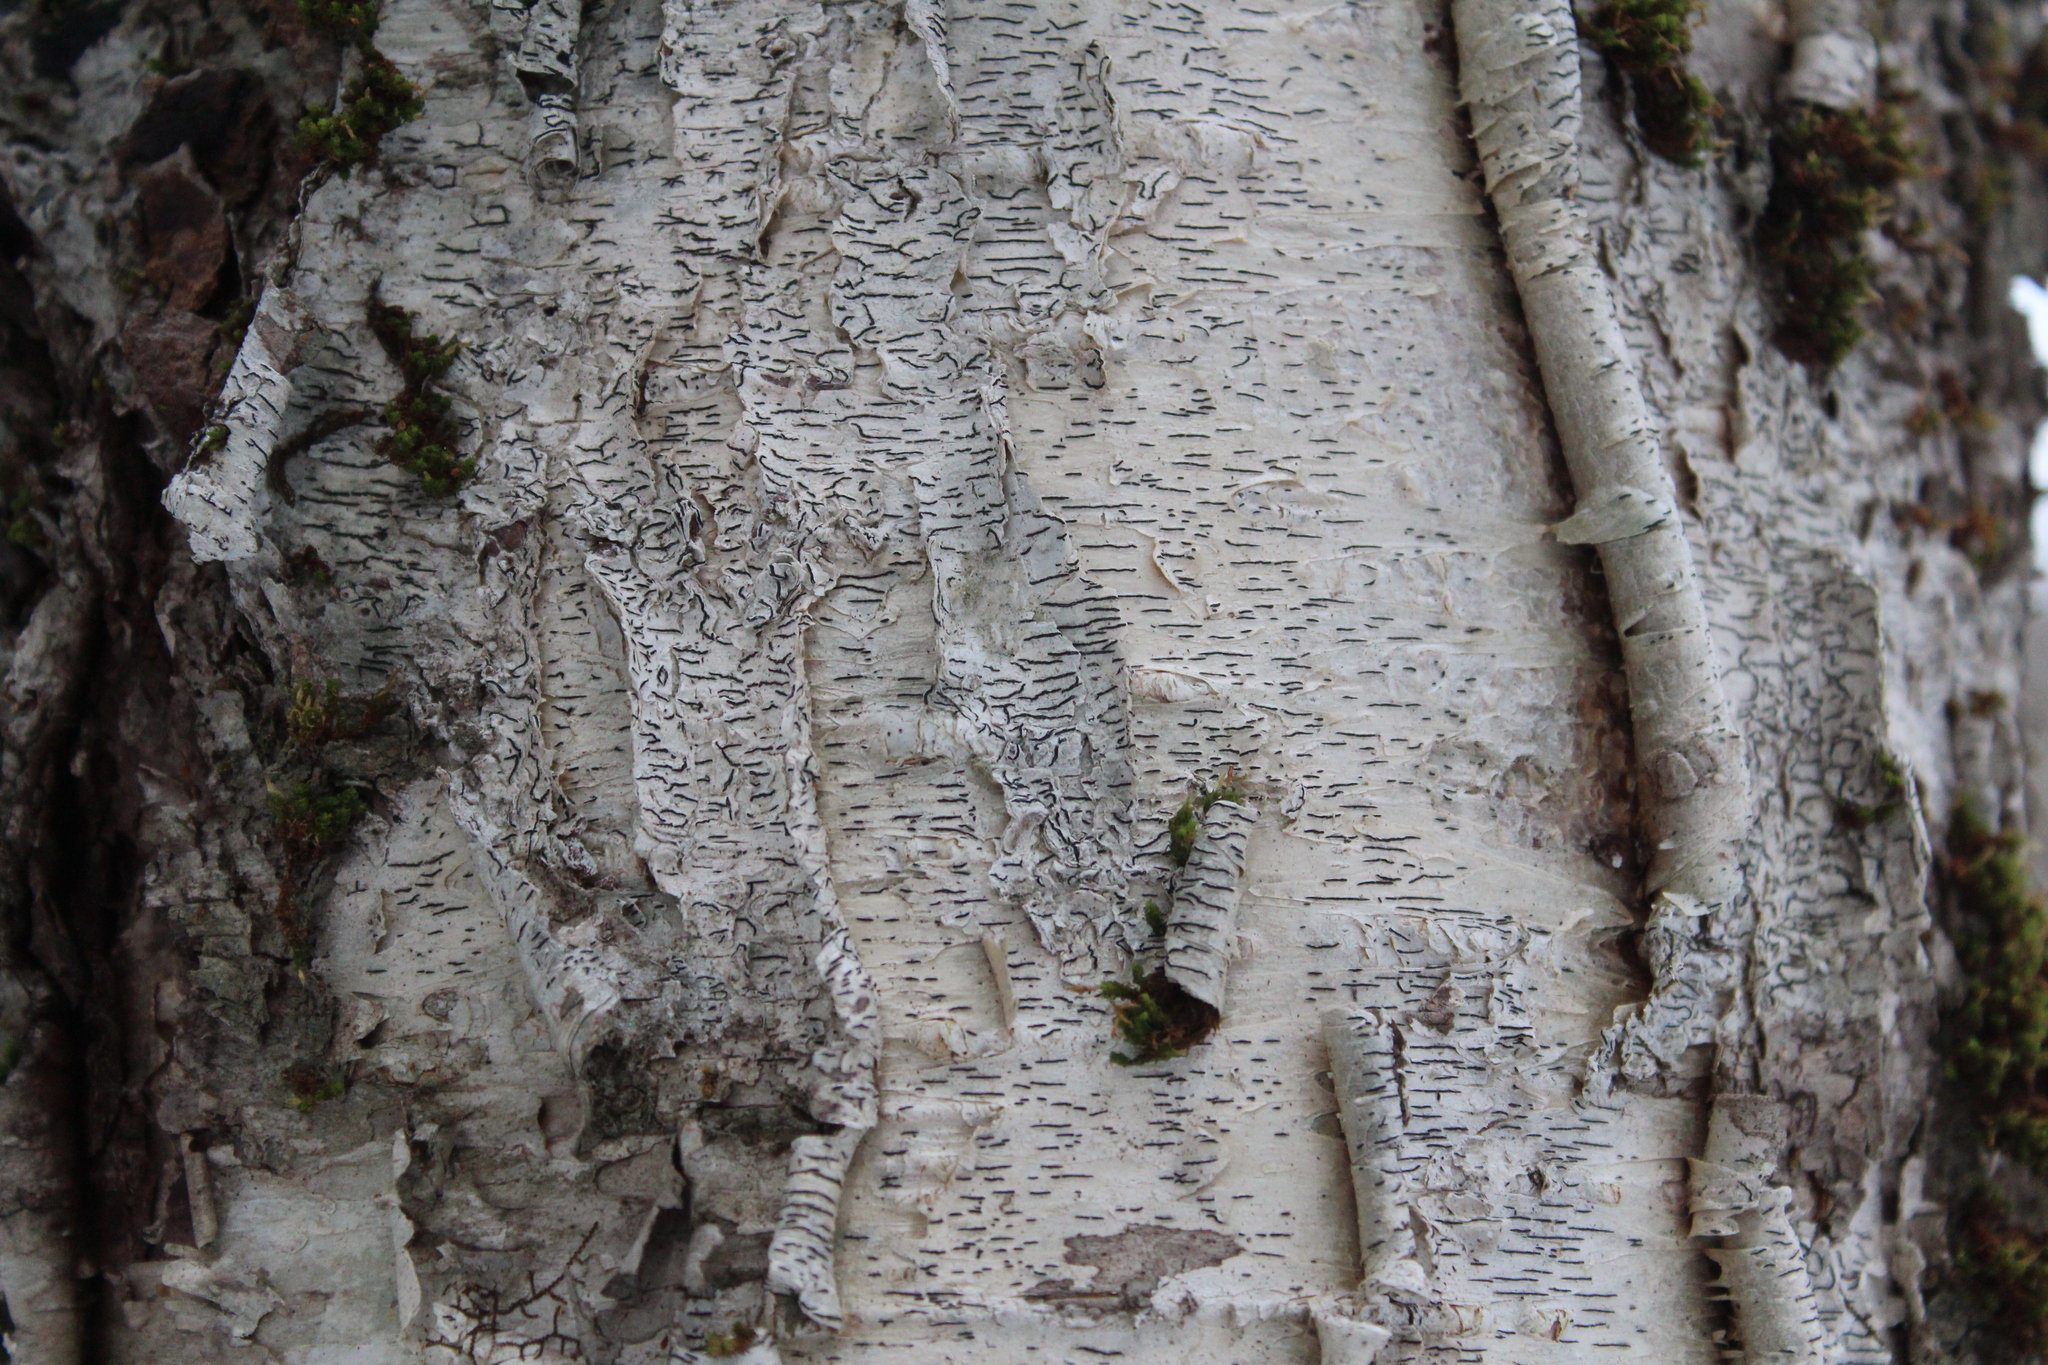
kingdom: Fungi
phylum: Ascomycota
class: Lecanoromycetes
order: Ostropales
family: Graphidaceae
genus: Graphis
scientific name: Graphis scripta
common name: Script lichen
